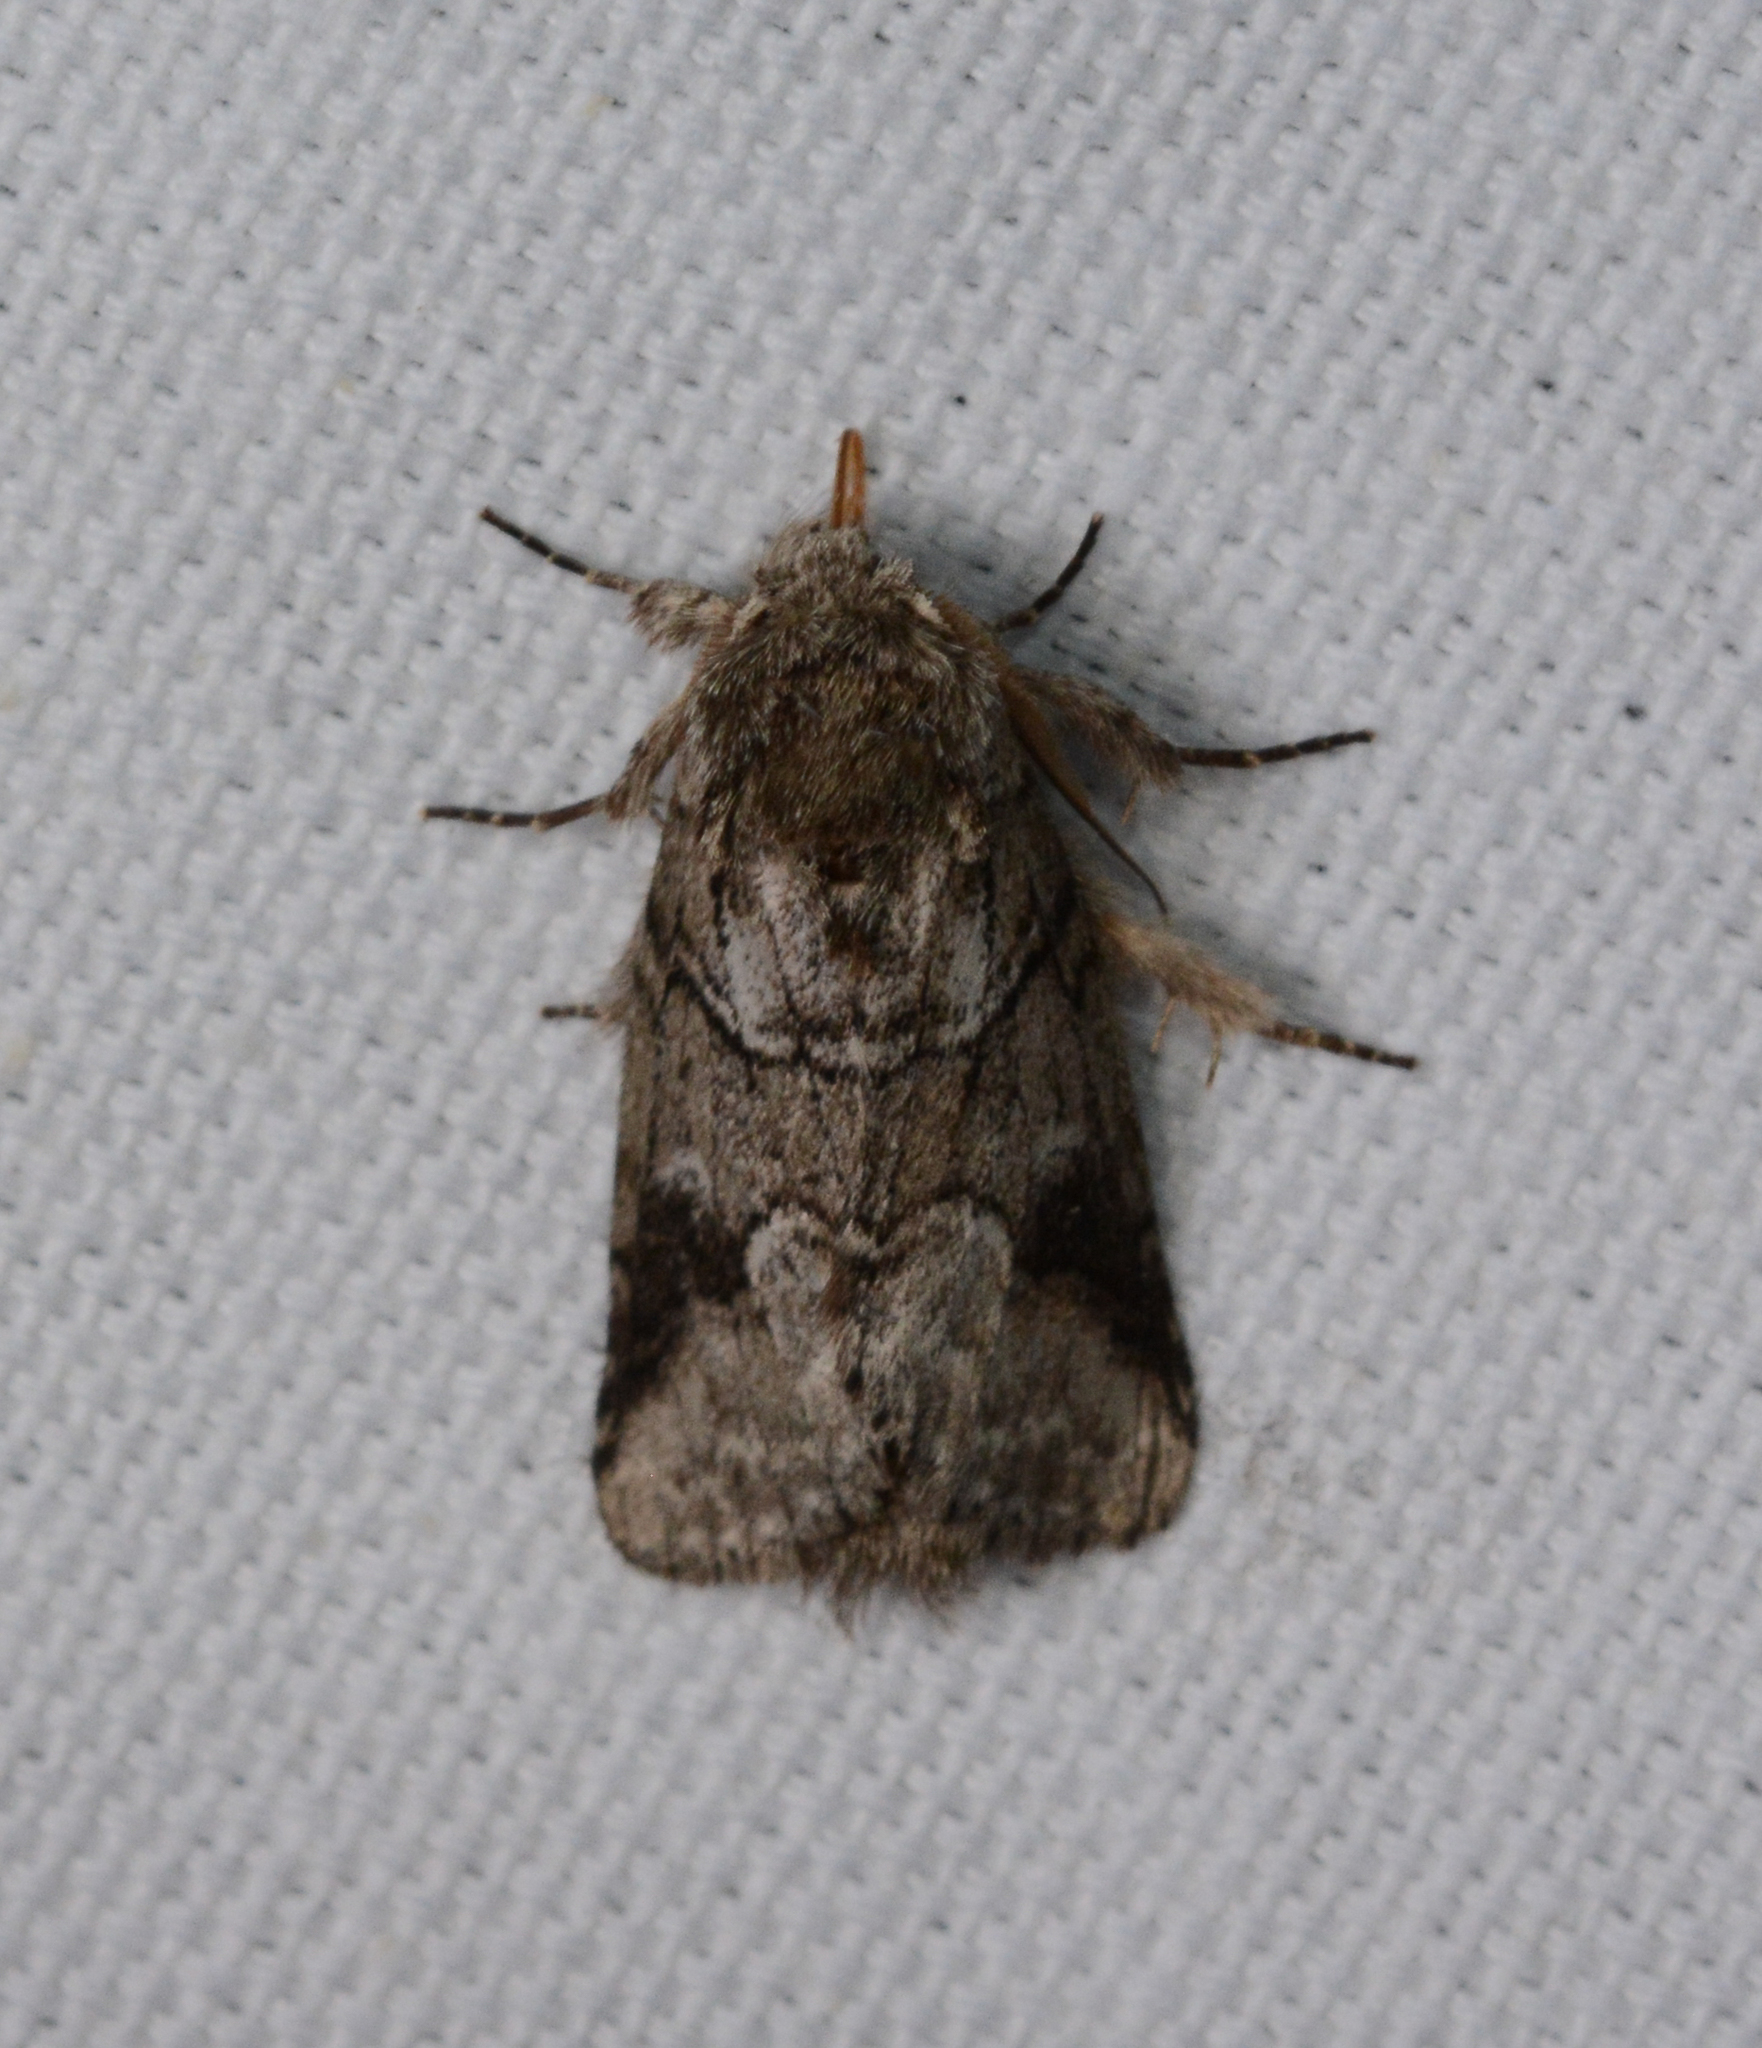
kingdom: Animalia
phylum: Arthropoda
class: Insecta
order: Lepidoptera
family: Notodontidae
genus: Lochmaeus
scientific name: Lochmaeus bilineata
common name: Double-lined prominent
